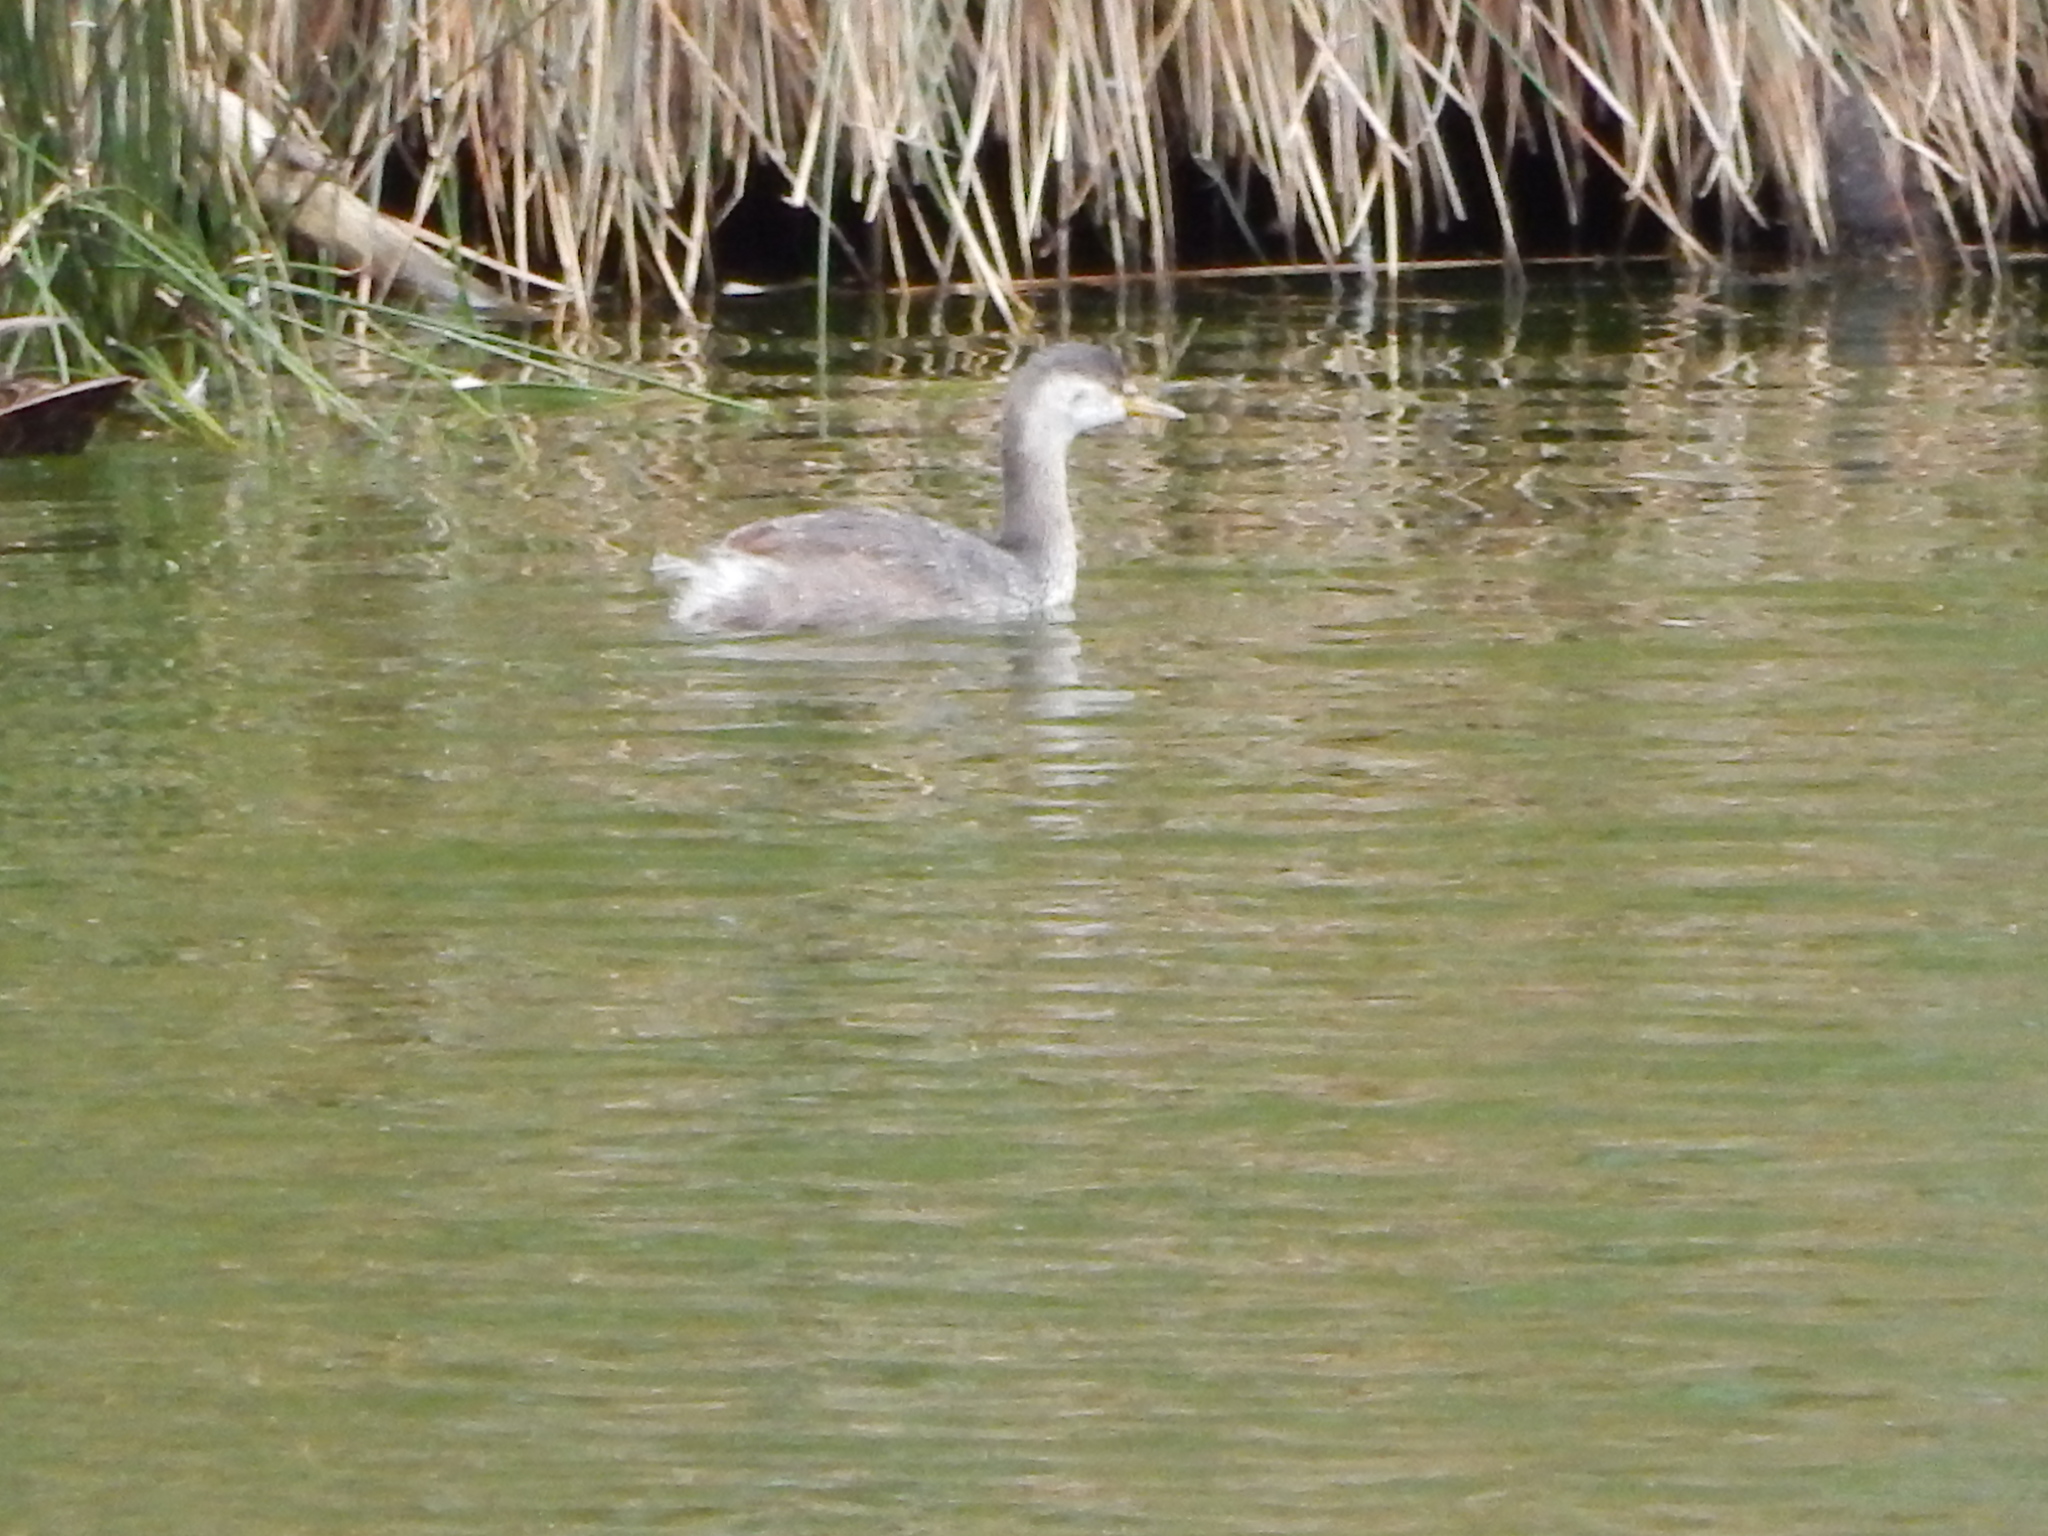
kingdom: Animalia
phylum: Chordata
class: Aves
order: Podicipediformes
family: Podicipedidae
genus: Poliocephalus
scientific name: Poliocephalus poliocephalus
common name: Hoary-headed grebe
